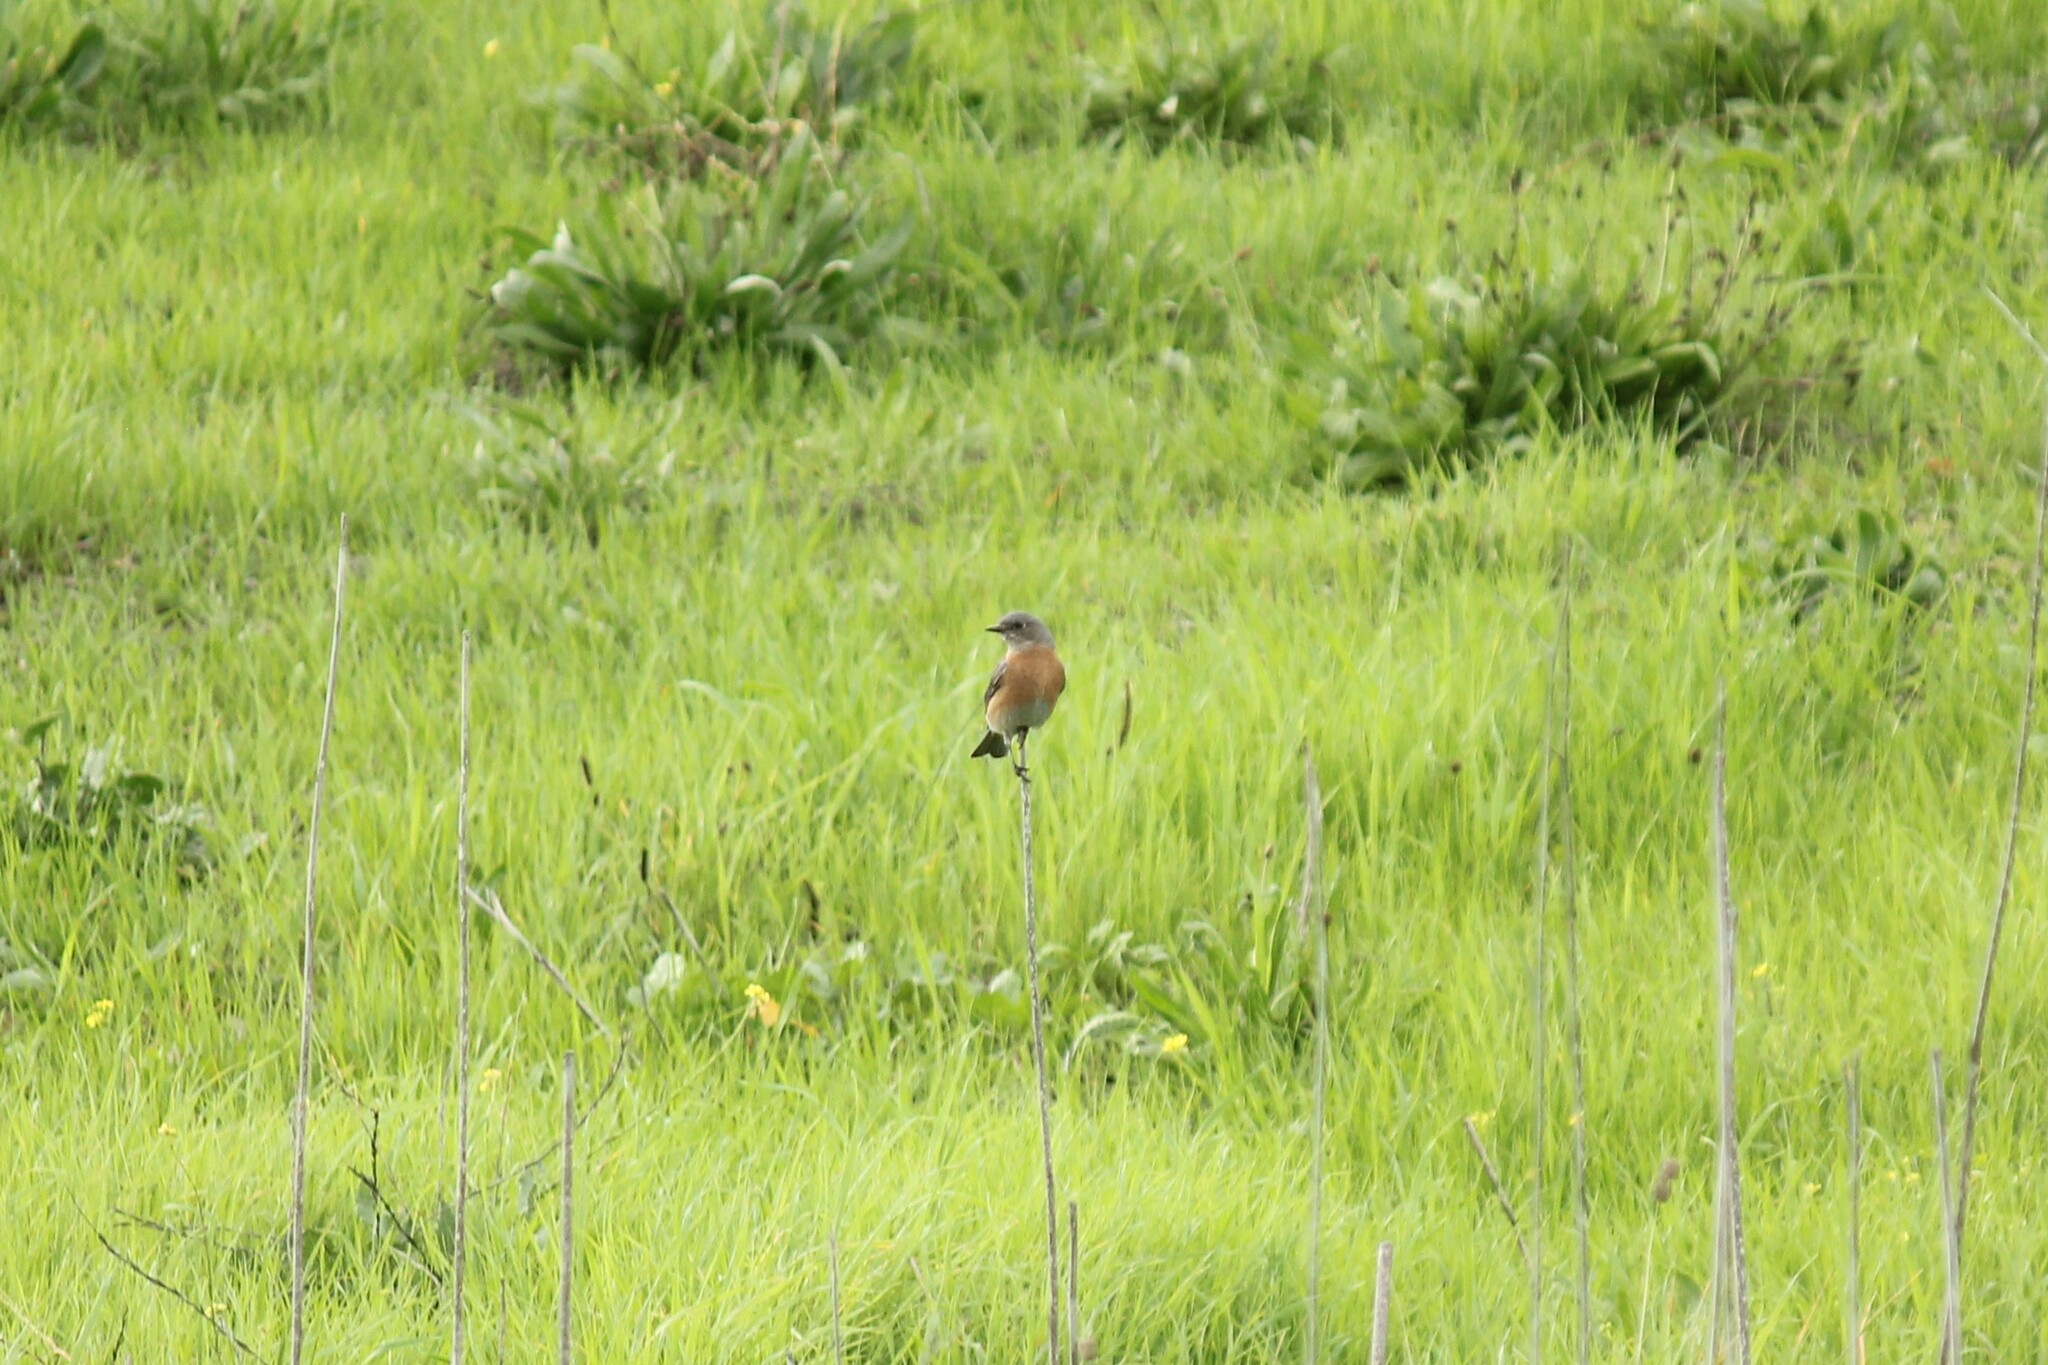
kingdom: Animalia
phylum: Chordata
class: Aves
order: Passeriformes
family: Turdidae
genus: Sialia
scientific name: Sialia mexicana
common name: Western bluebird
